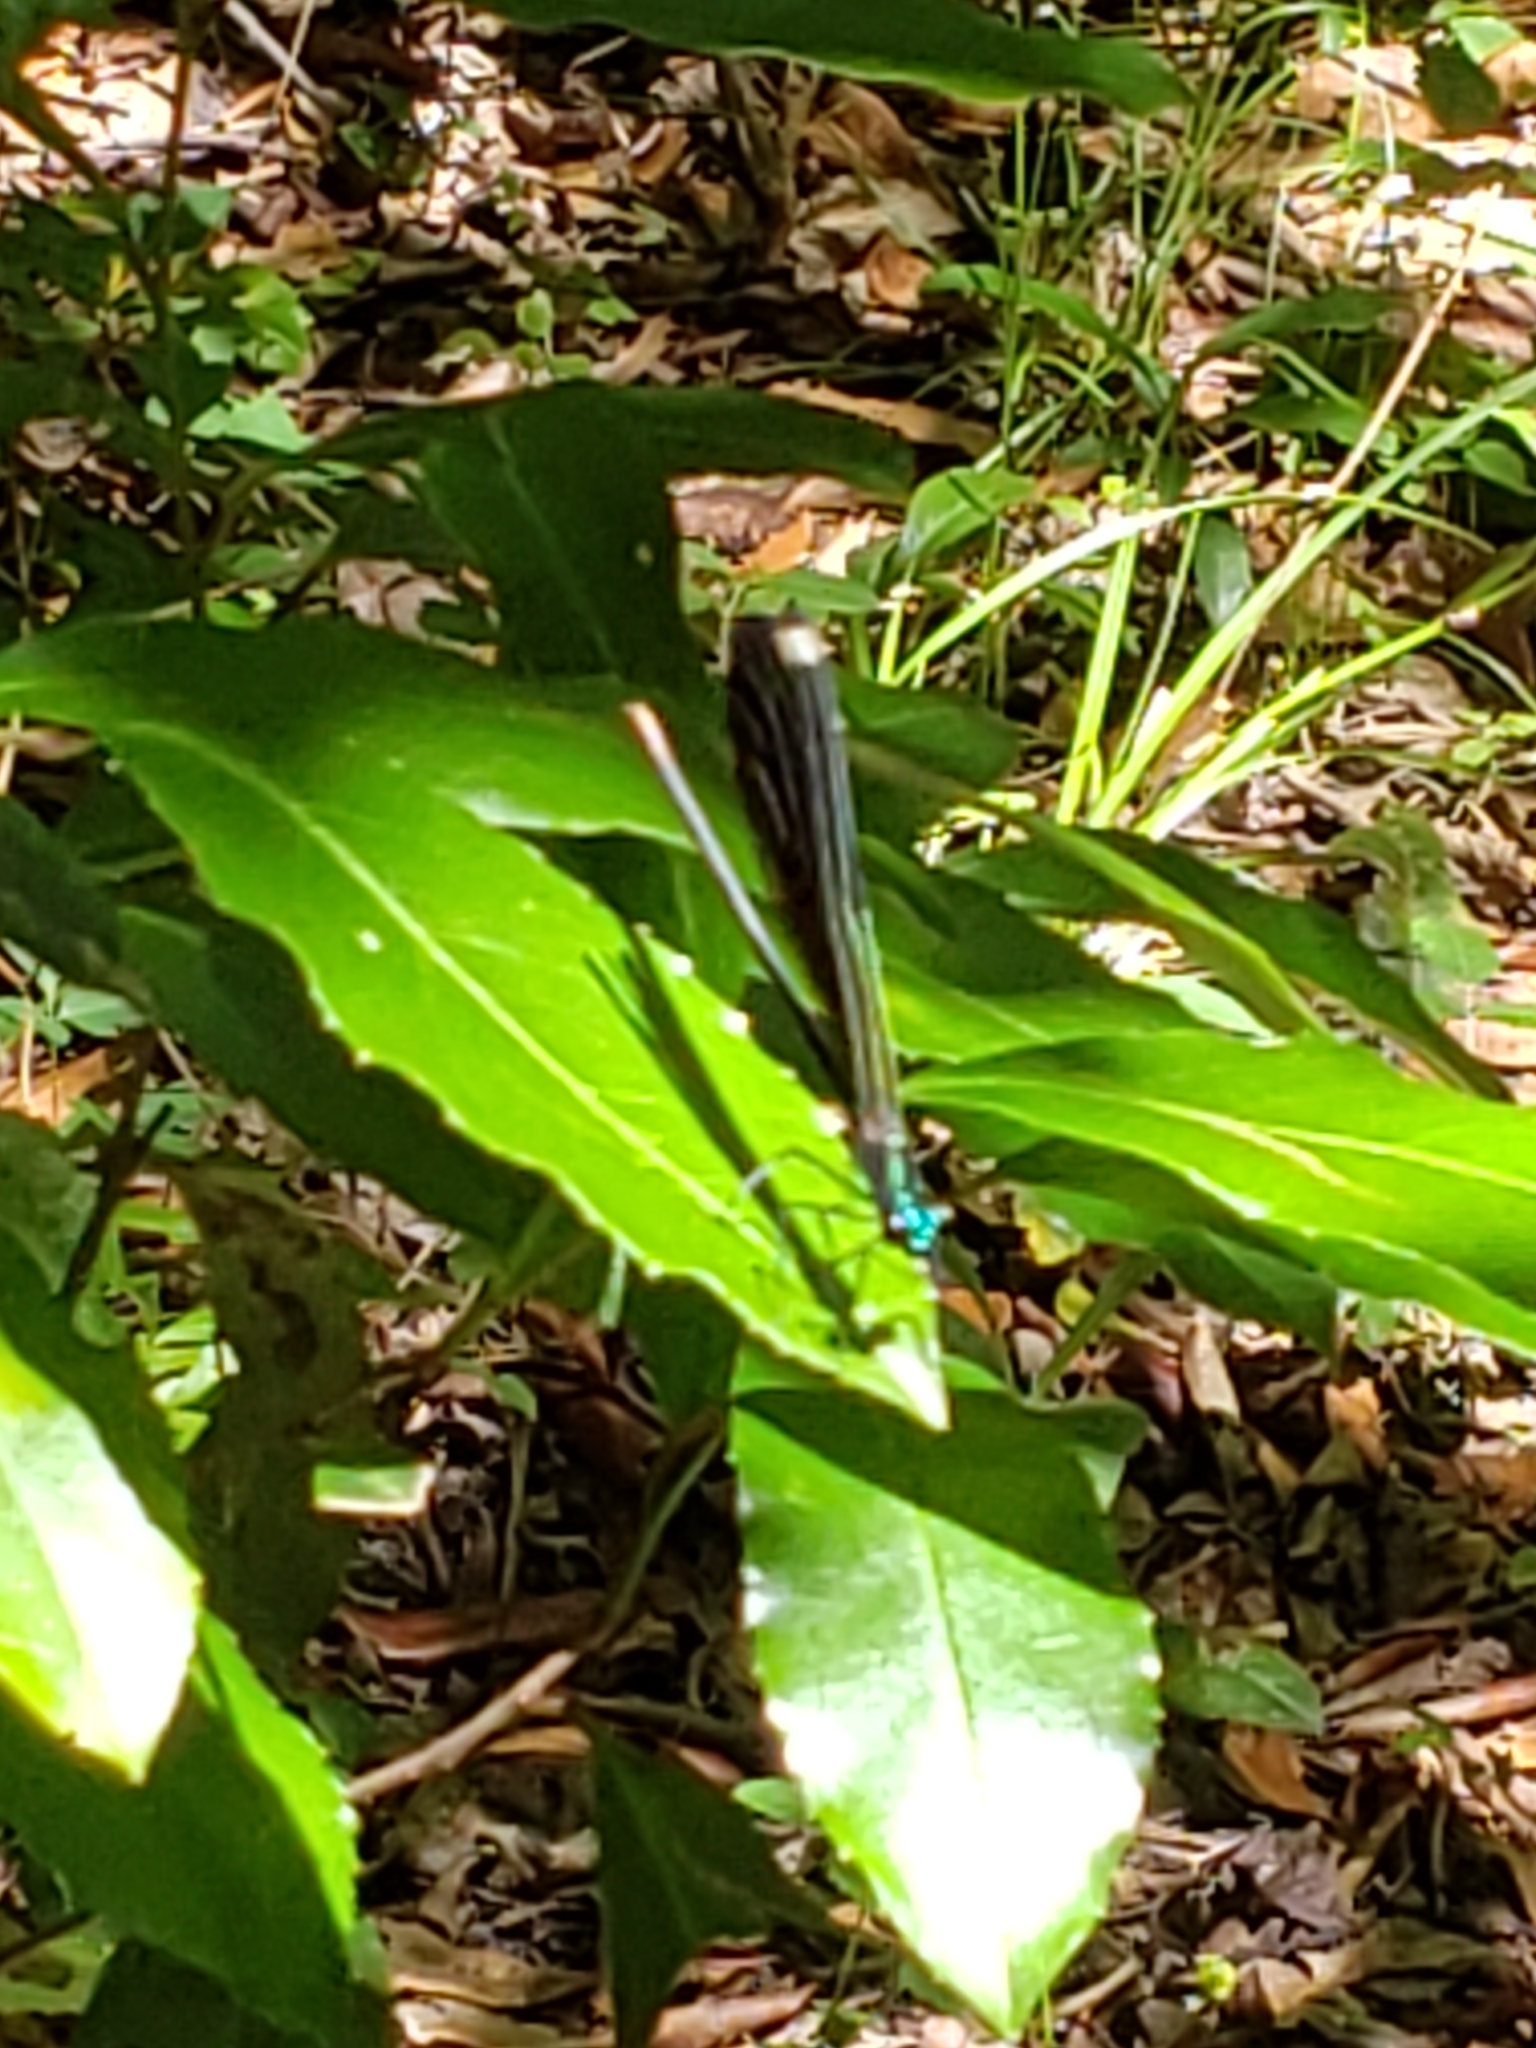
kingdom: Animalia
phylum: Arthropoda
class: Insecta
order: Odonata
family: Calopterygidae
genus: Calopteryx
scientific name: Calopteryx maculata
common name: Ebony jewelwing
